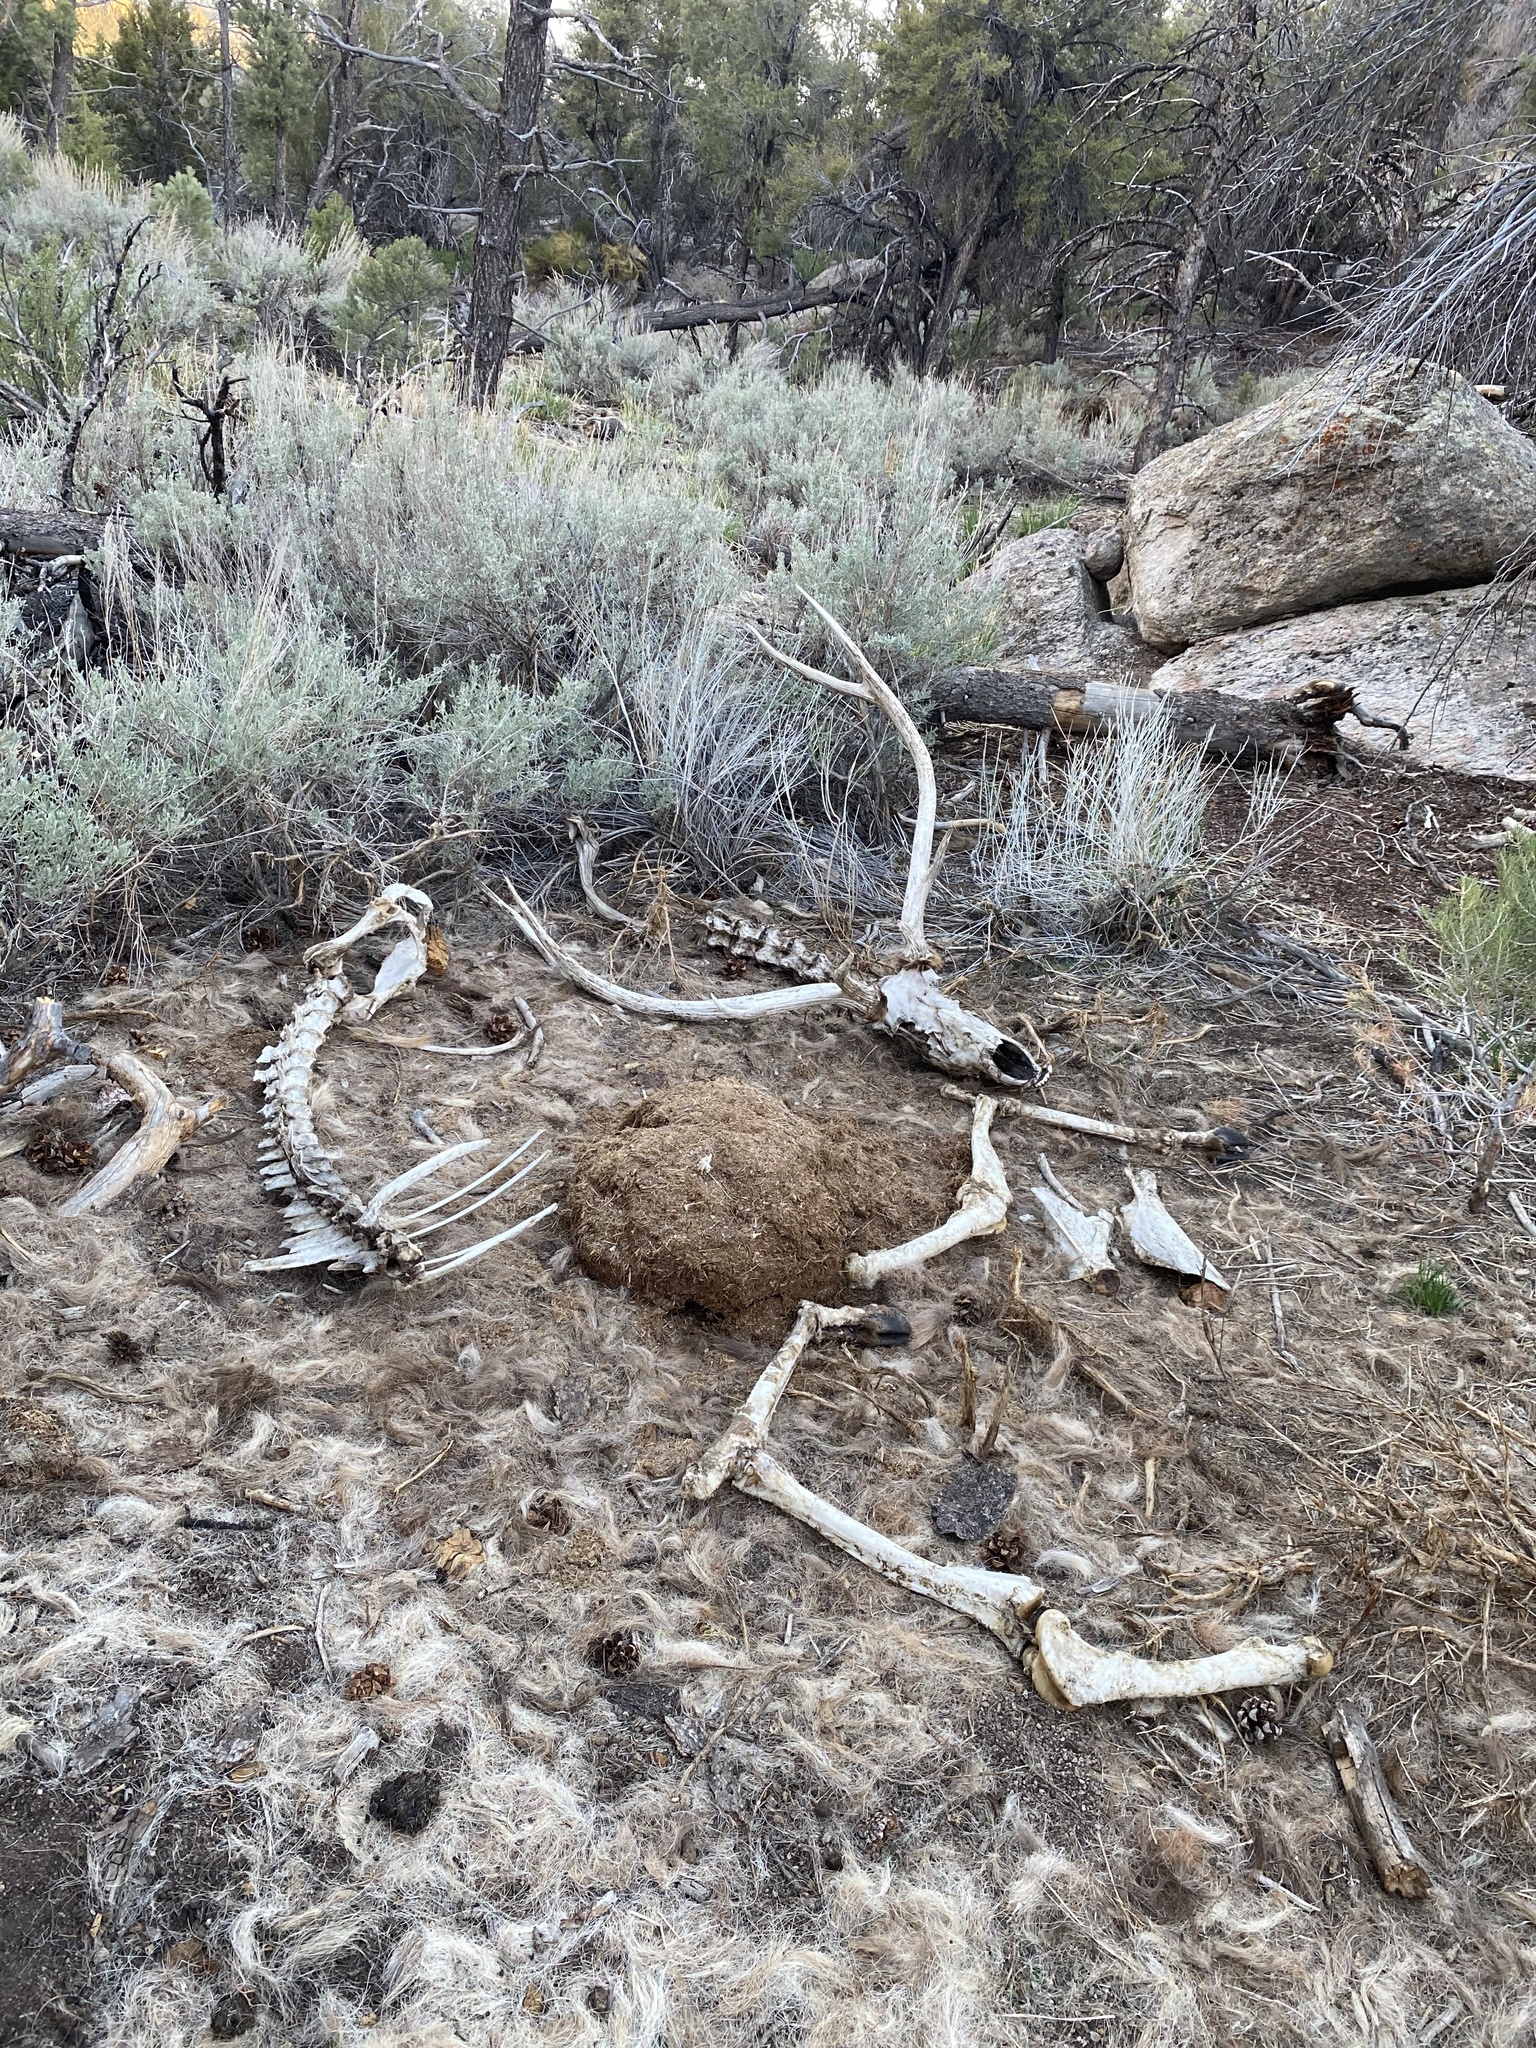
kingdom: Animalia
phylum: Chordata
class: Mammalia
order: Artiodactyla
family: Cervidae
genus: Cervus
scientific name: Cervus elaphus
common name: Red deer
